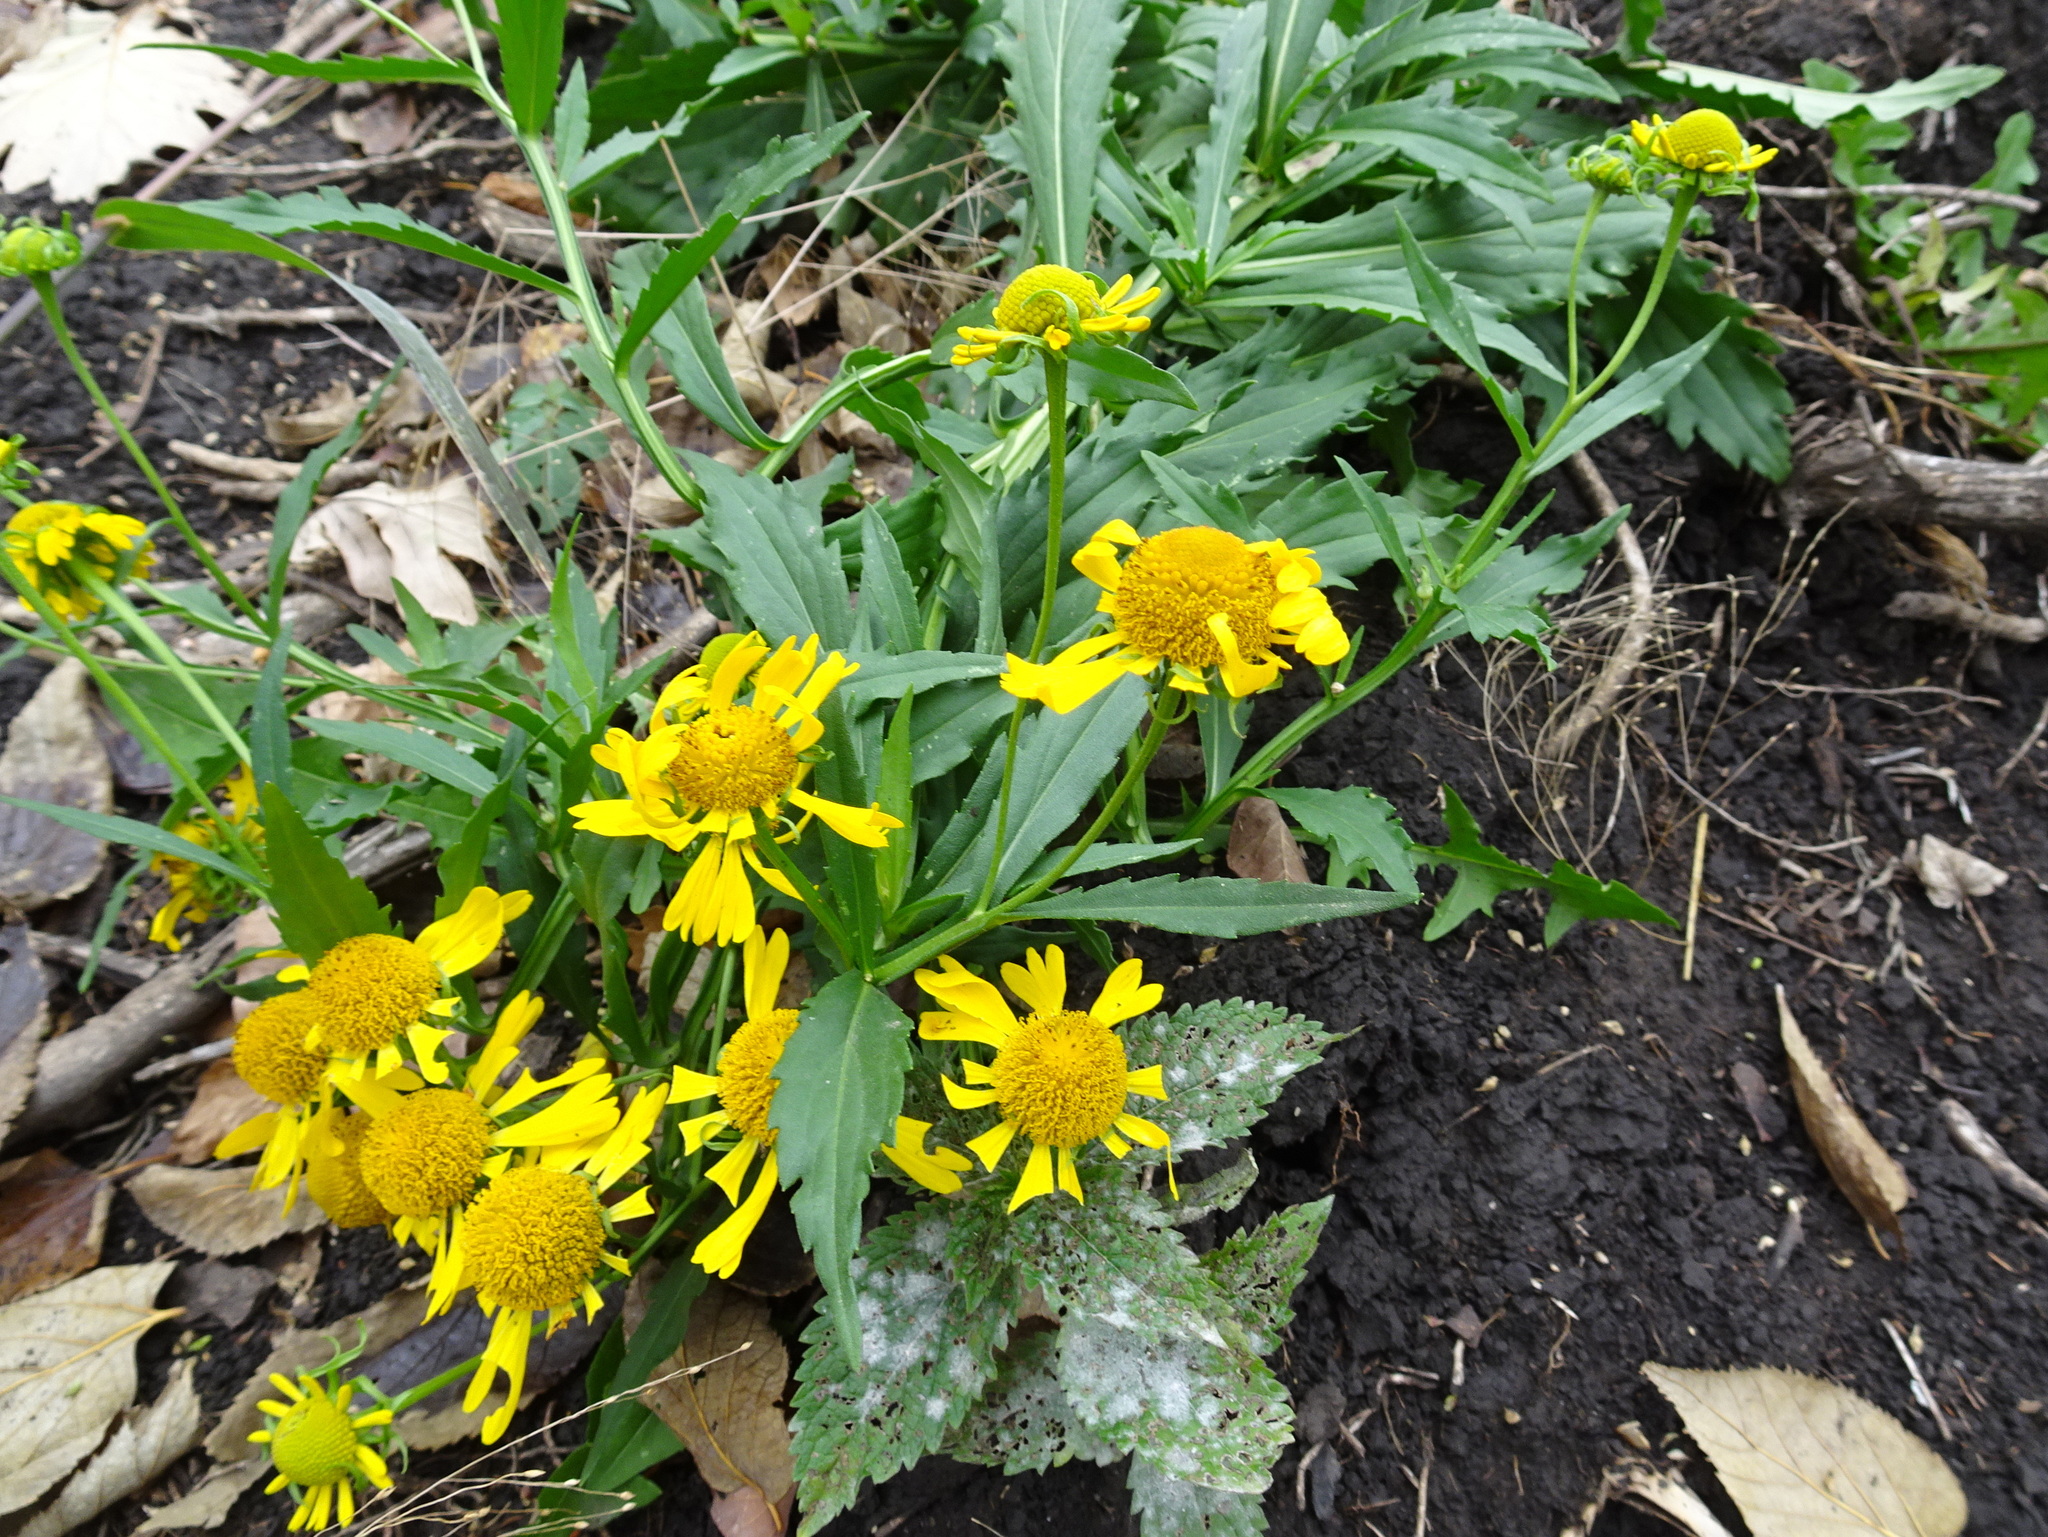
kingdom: Plantae
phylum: Tracheophyta
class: Magnoliopsida
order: Asterales
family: Asteraceae
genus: Helenium
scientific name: Helenium autumnale
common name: Sneezeweed
